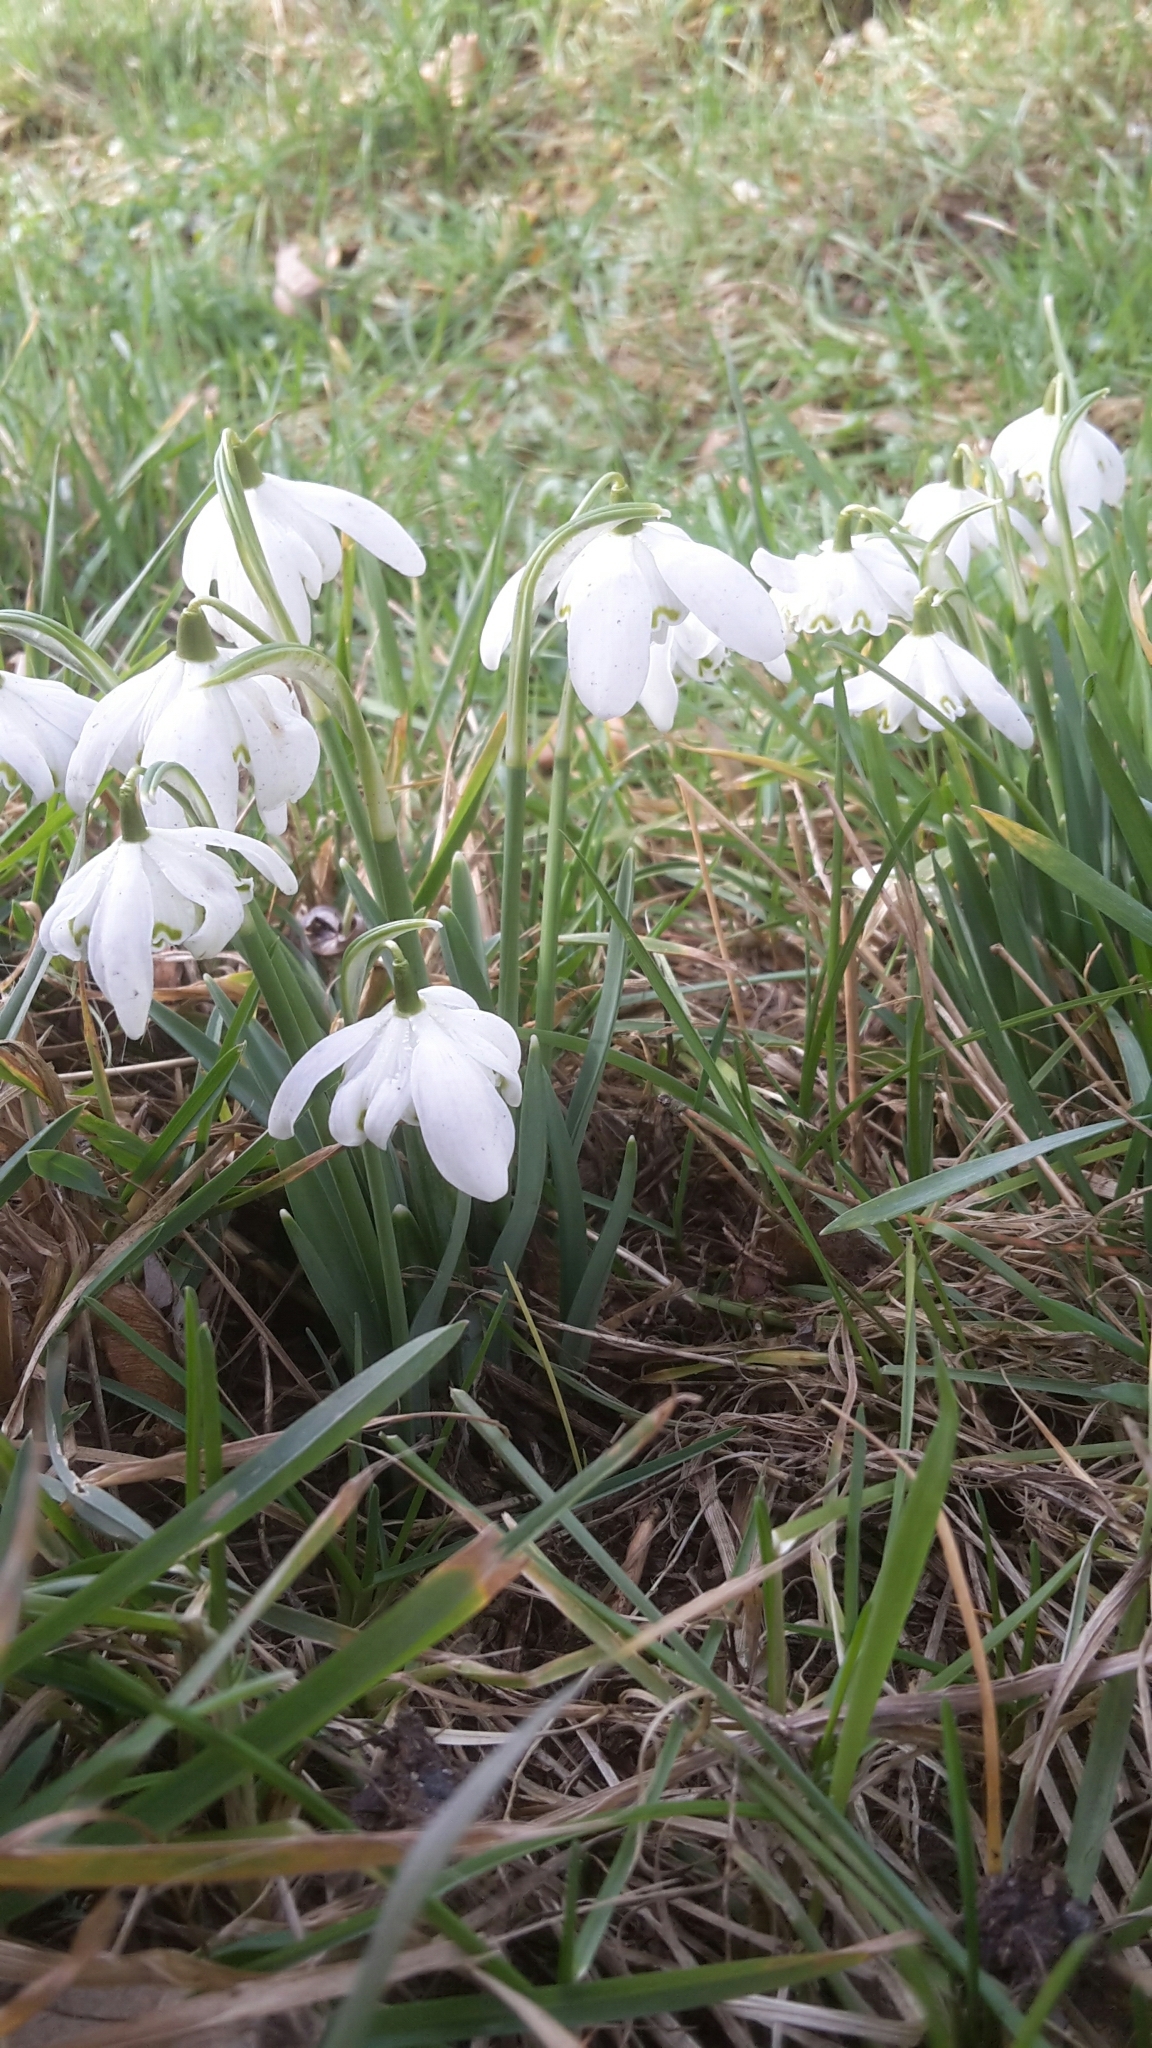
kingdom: Plantae
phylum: Tracheophyta
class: Liliopsida
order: Asparagales
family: Amaryllidaceae
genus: Galanthus
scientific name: Galanthus nivalis
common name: Snowdrop
